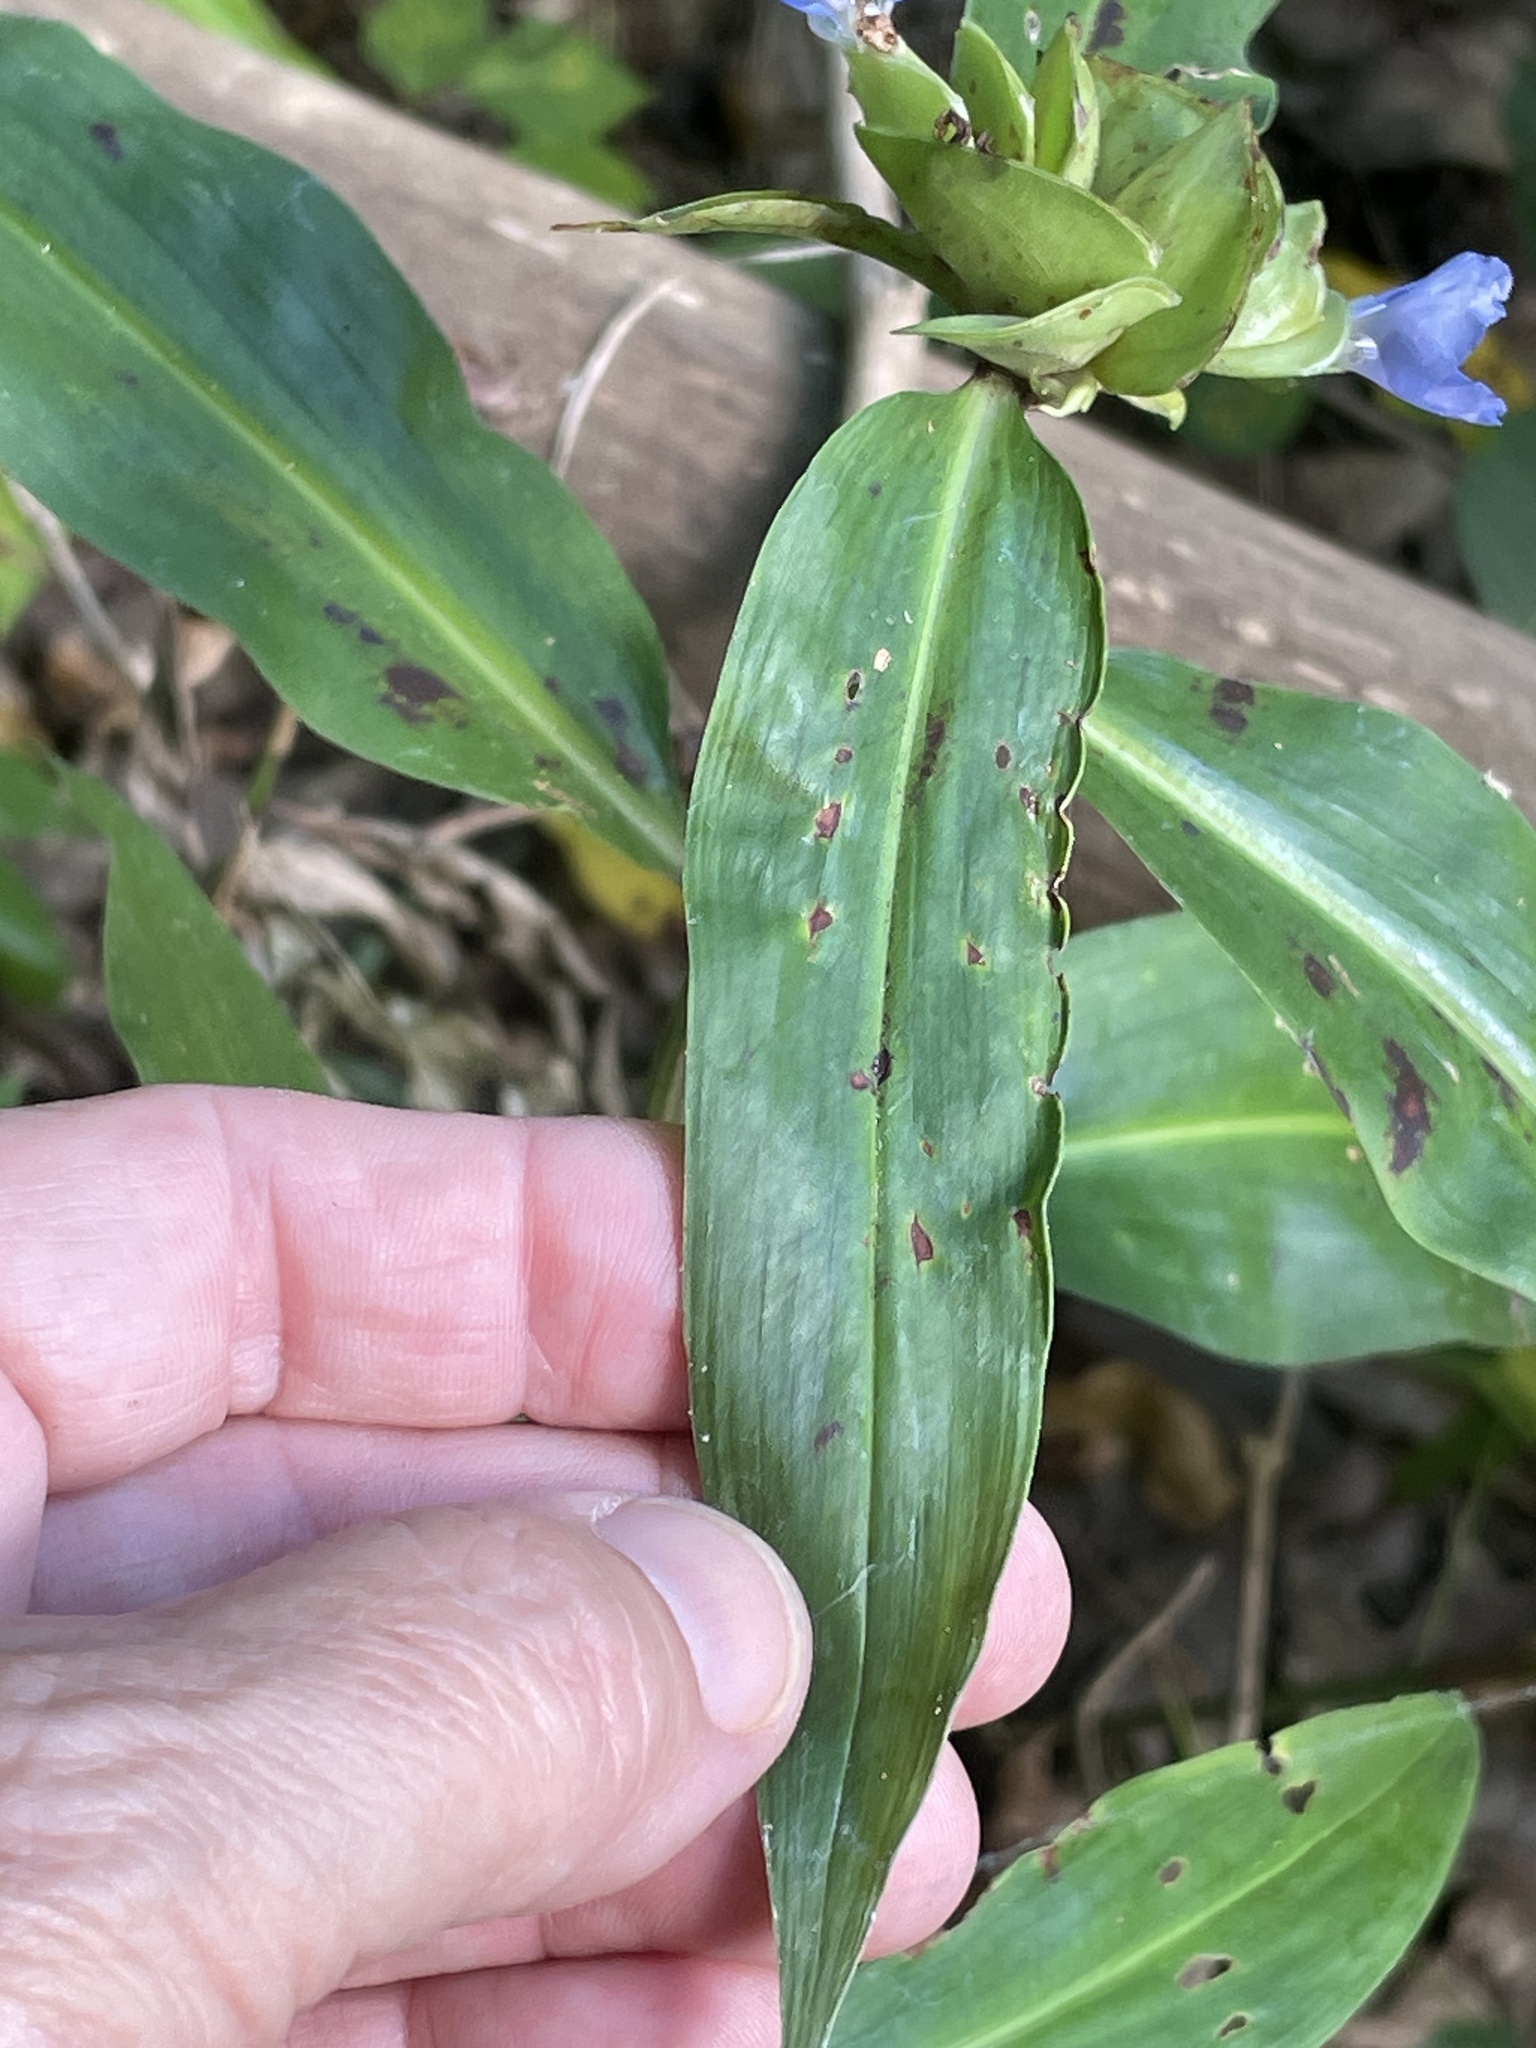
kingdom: Plantae
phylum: Tracheophyta
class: Liliopsida
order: Commelinales
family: Commelinaceae
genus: Commelina
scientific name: Commelina virginica
